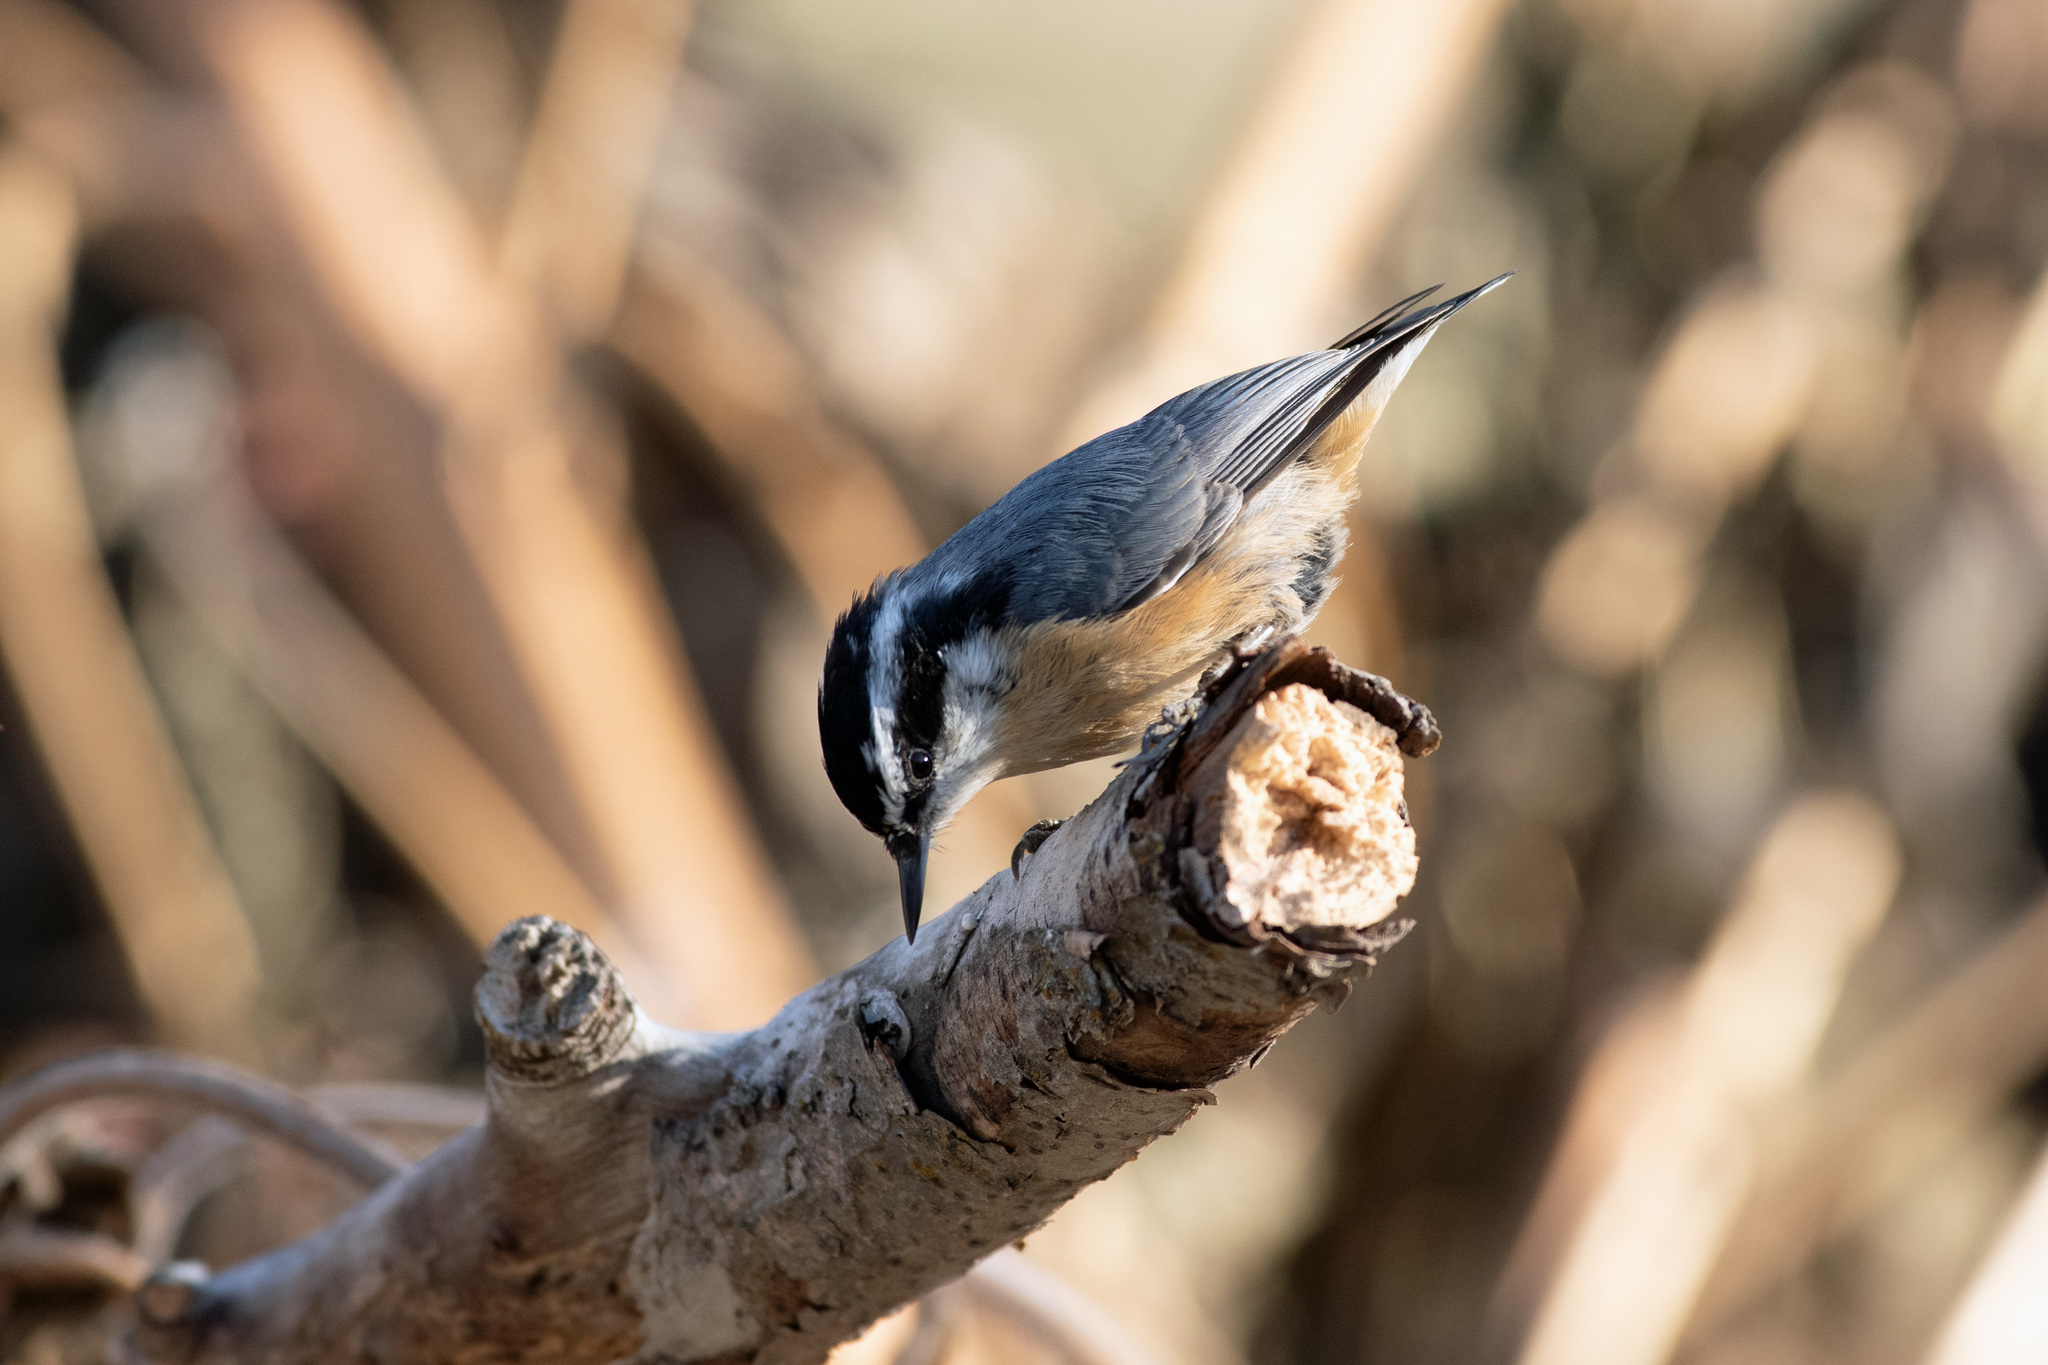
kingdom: Animalia
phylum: Chordata
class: Aves
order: Passeriformes
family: Sittidae
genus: Sitta
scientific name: Sitta canadensis
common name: Red-breasted nuthatch
